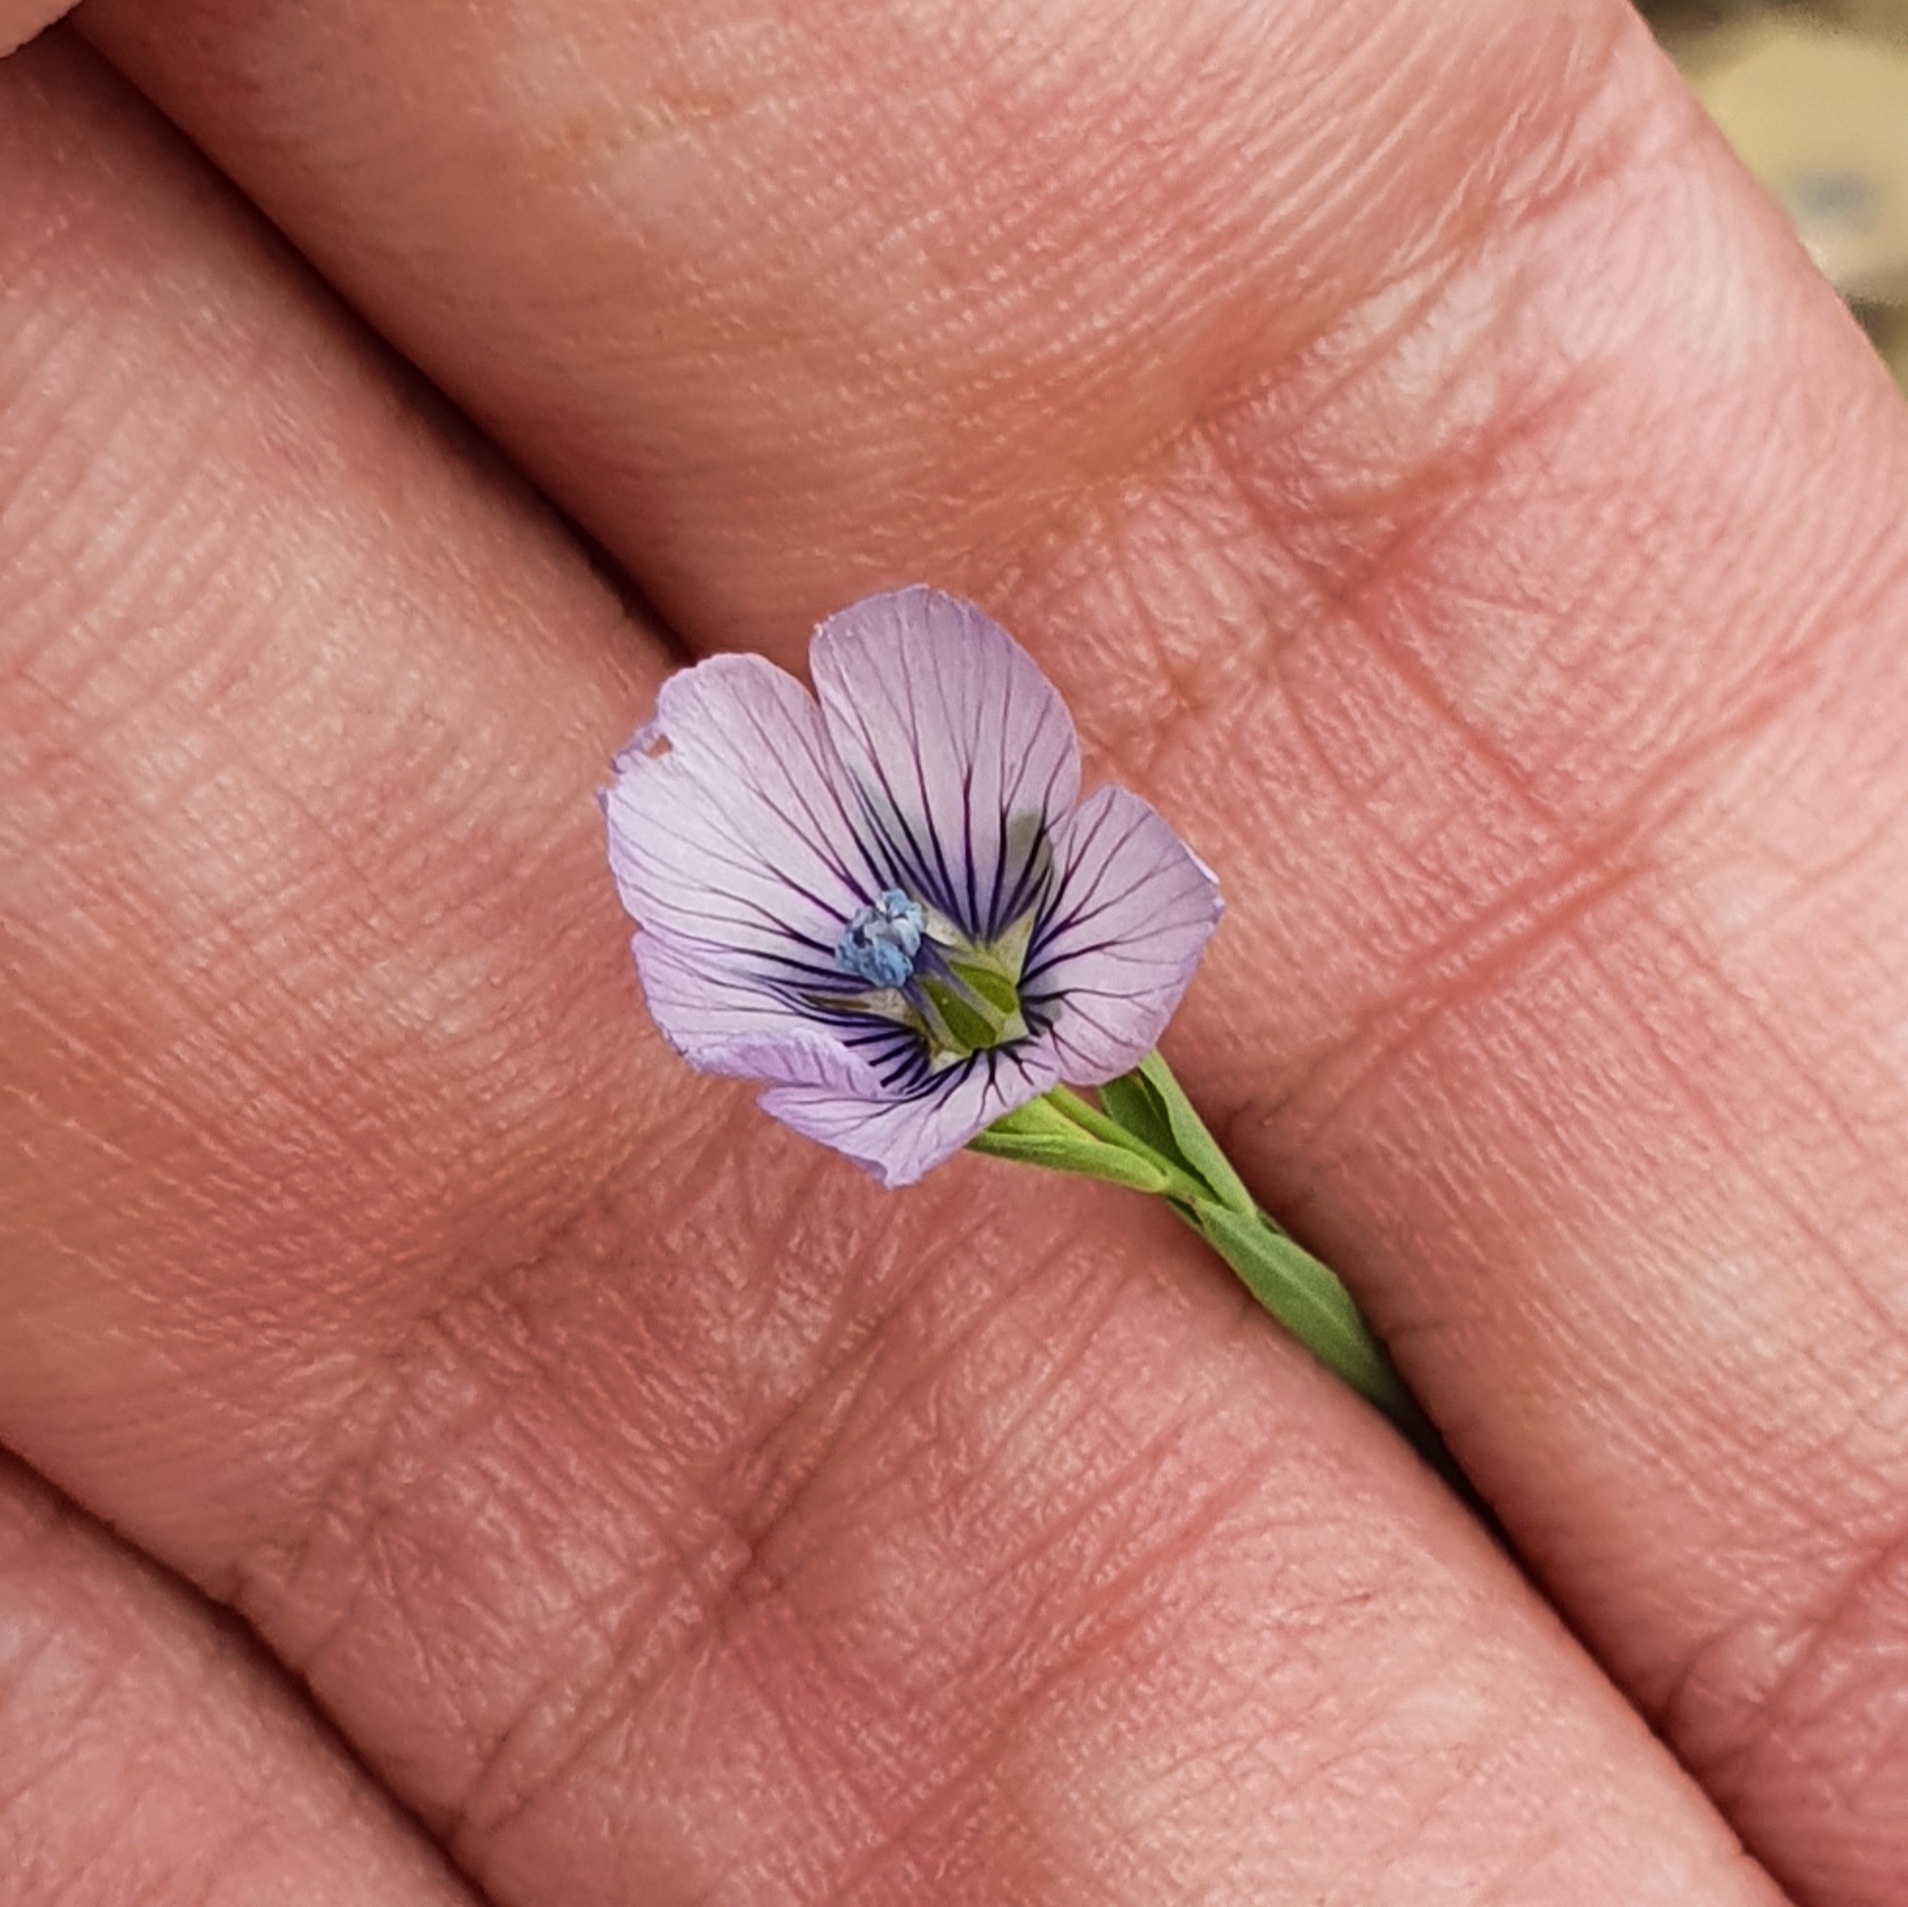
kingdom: Plantae
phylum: Tracheophyta
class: Magnoliopsida
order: Malpighiales
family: Linaceae
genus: Linum
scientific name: Linum bienne
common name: Pale flax
